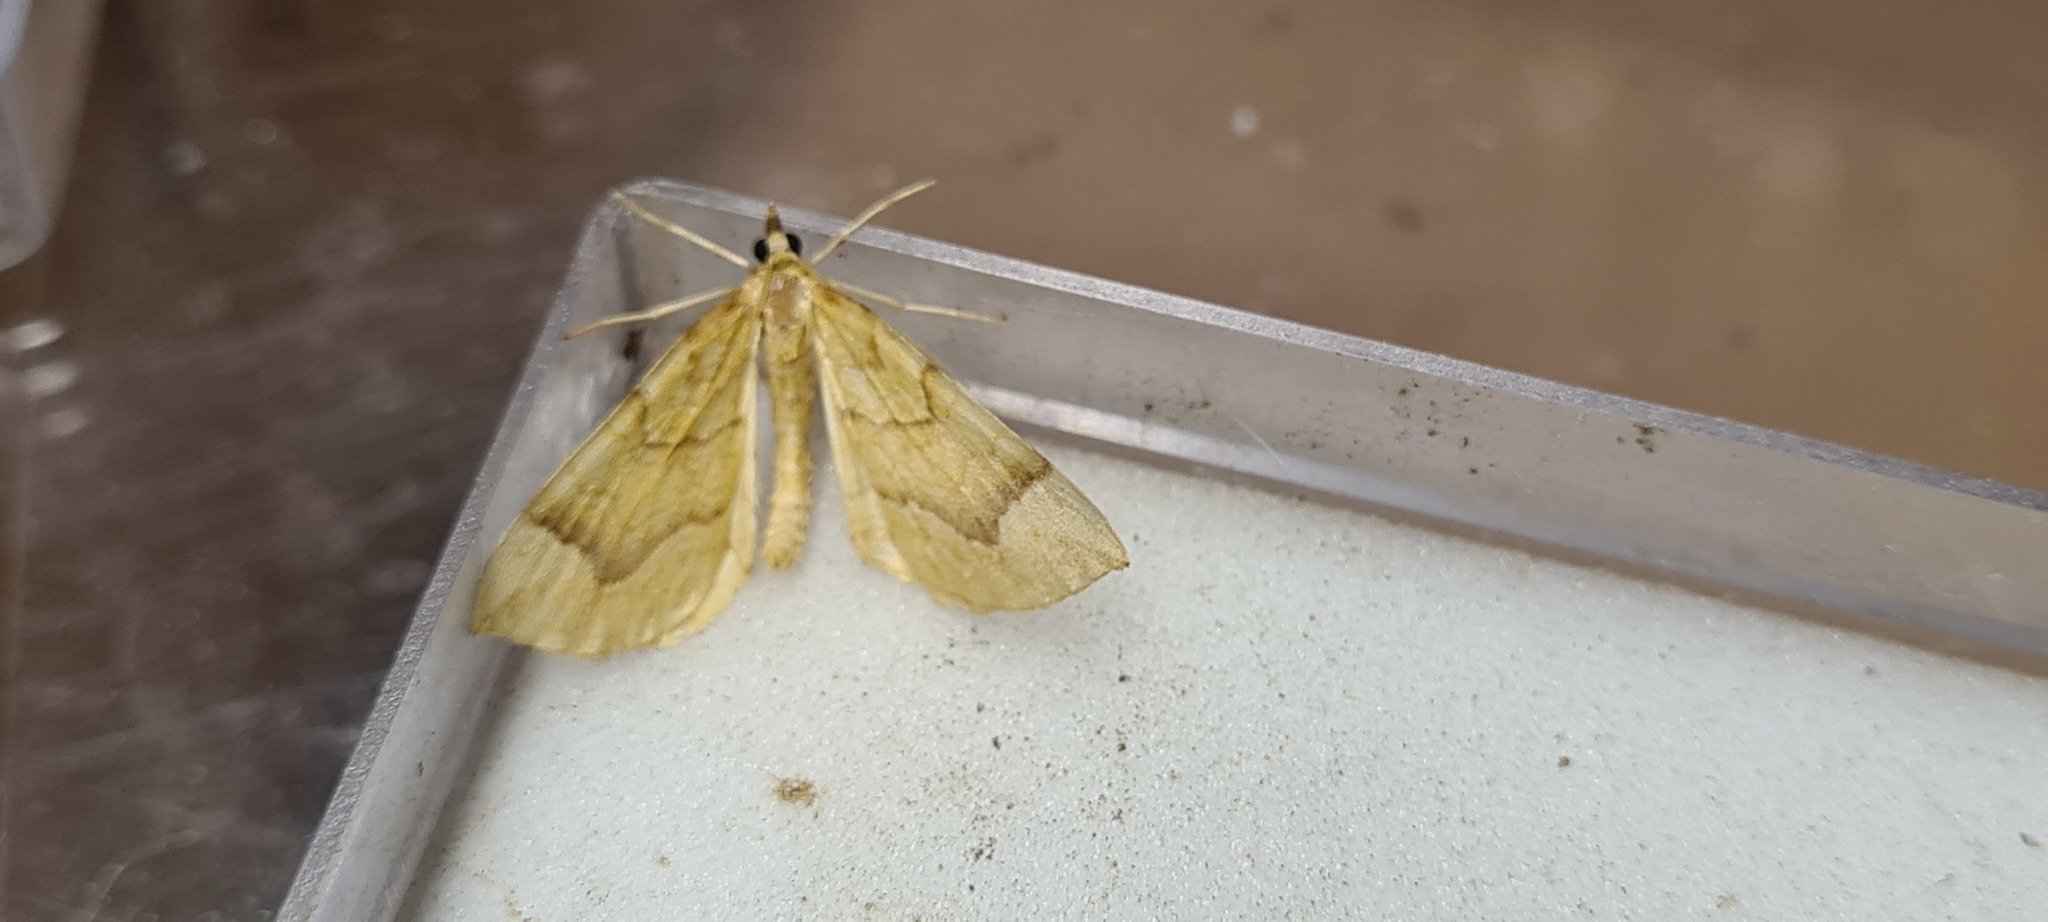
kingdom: Animalia
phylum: Arthropoda
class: Insecta
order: Lepidoptera
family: Geometridae
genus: Eulithis
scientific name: Eulithis mellinata
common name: Spinach
